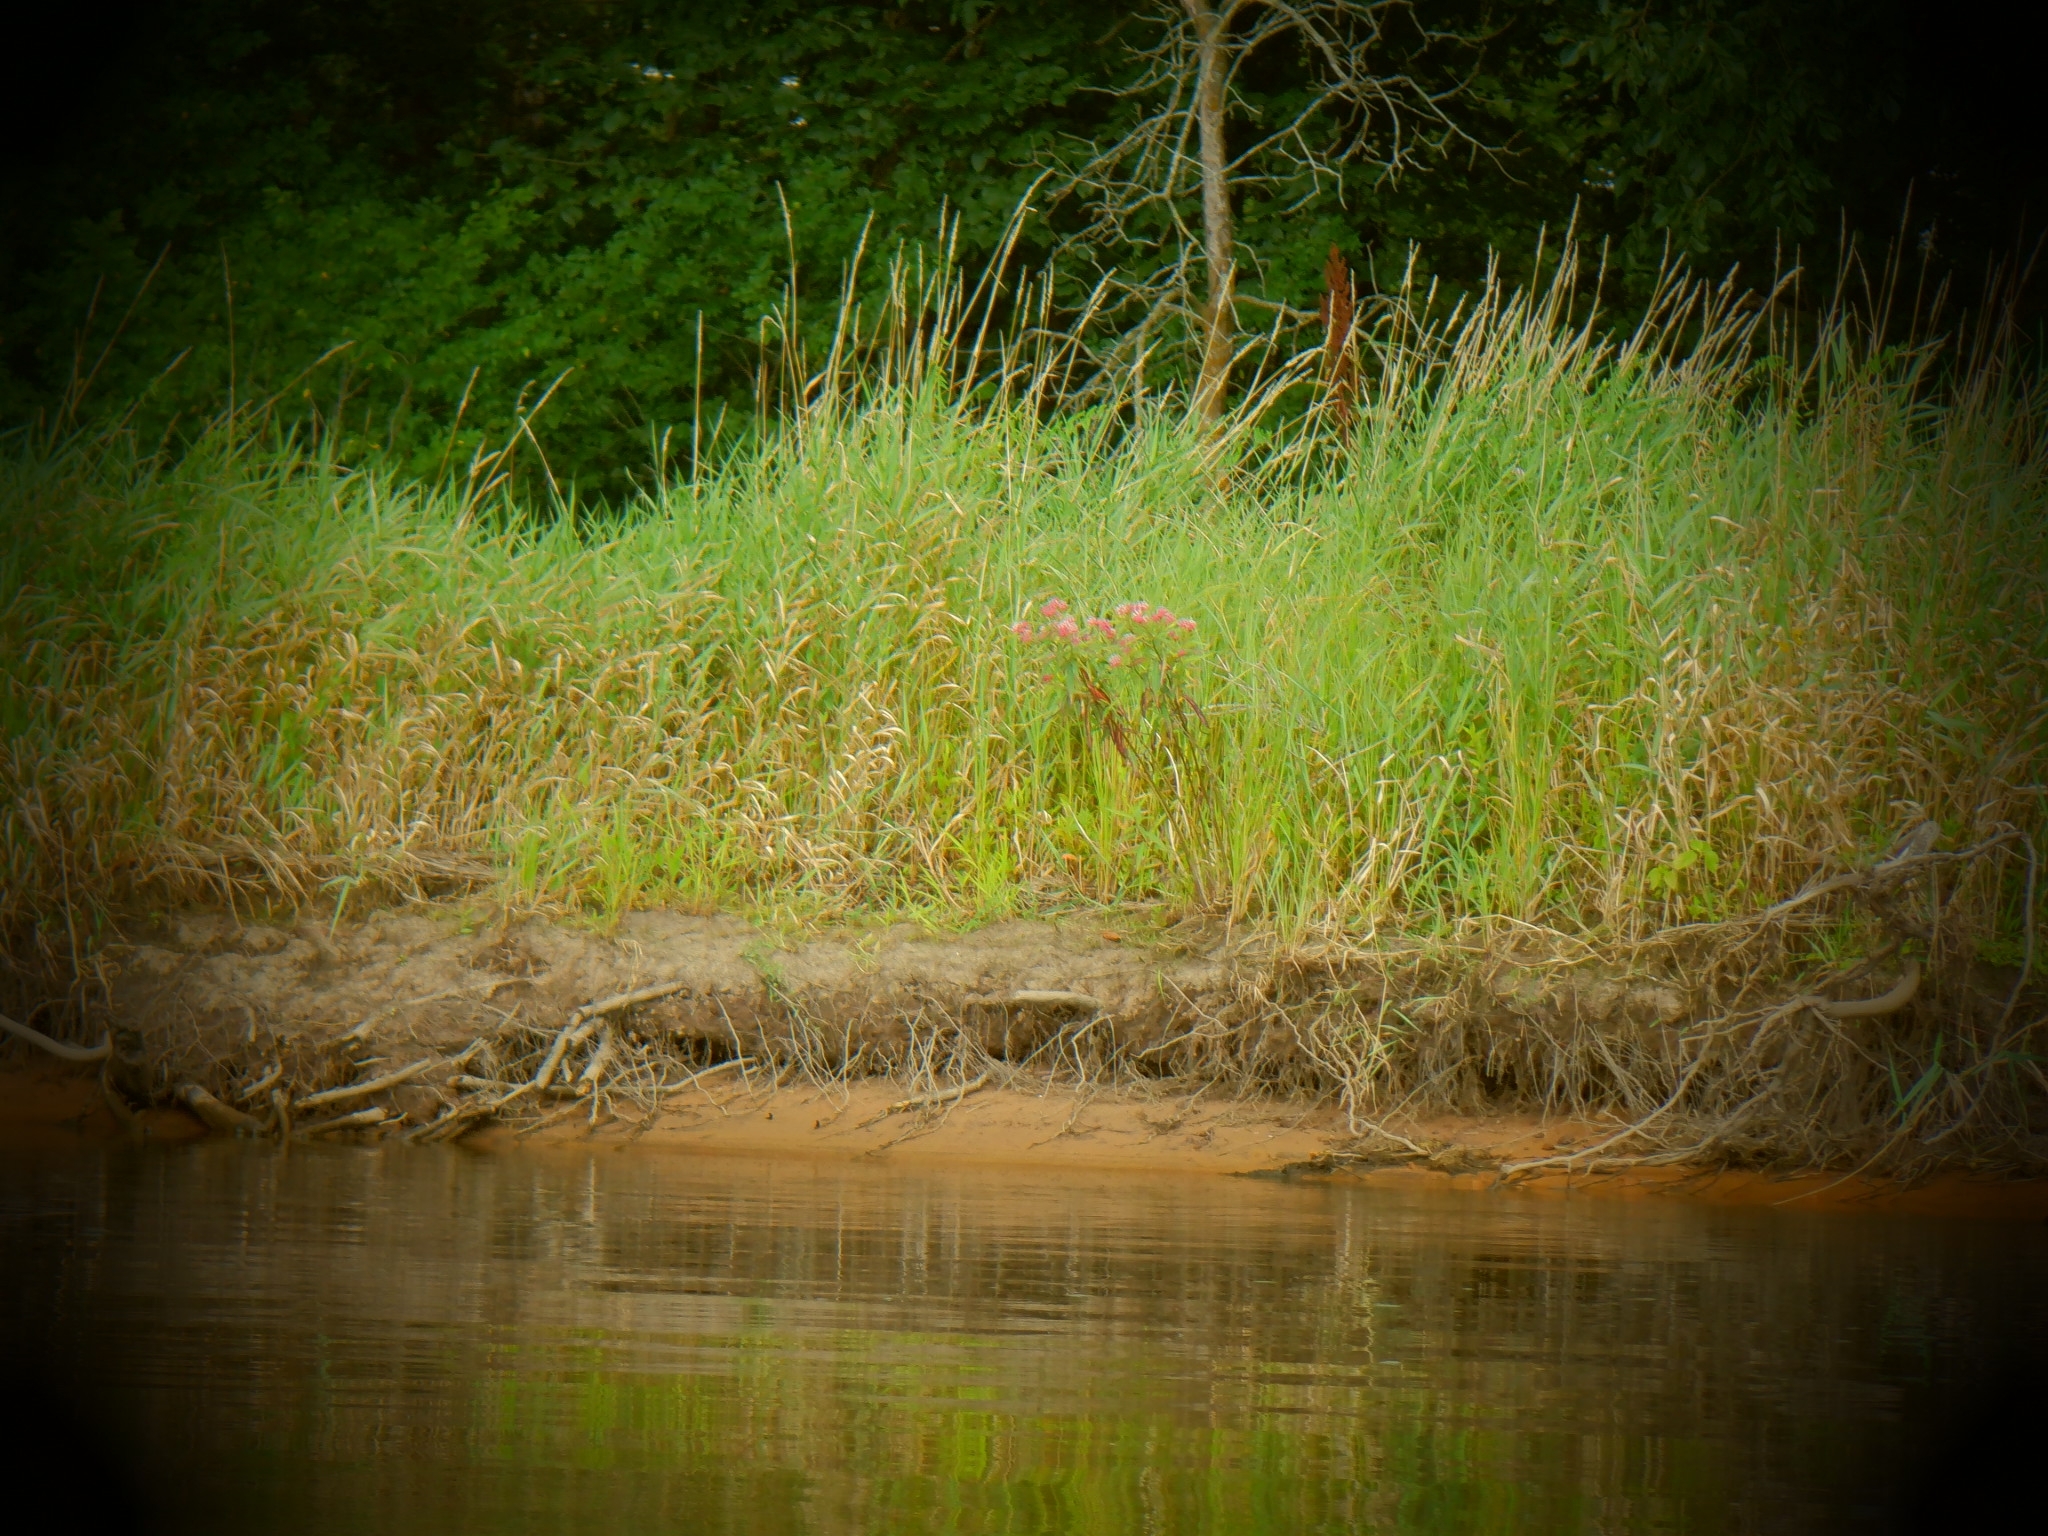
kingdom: Plantae
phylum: Tracheophyta
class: Magnoliopsida
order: Gentianales
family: Apocynaceae
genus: Asclepias
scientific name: Asclepias incarnata
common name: Swamp milkweed
